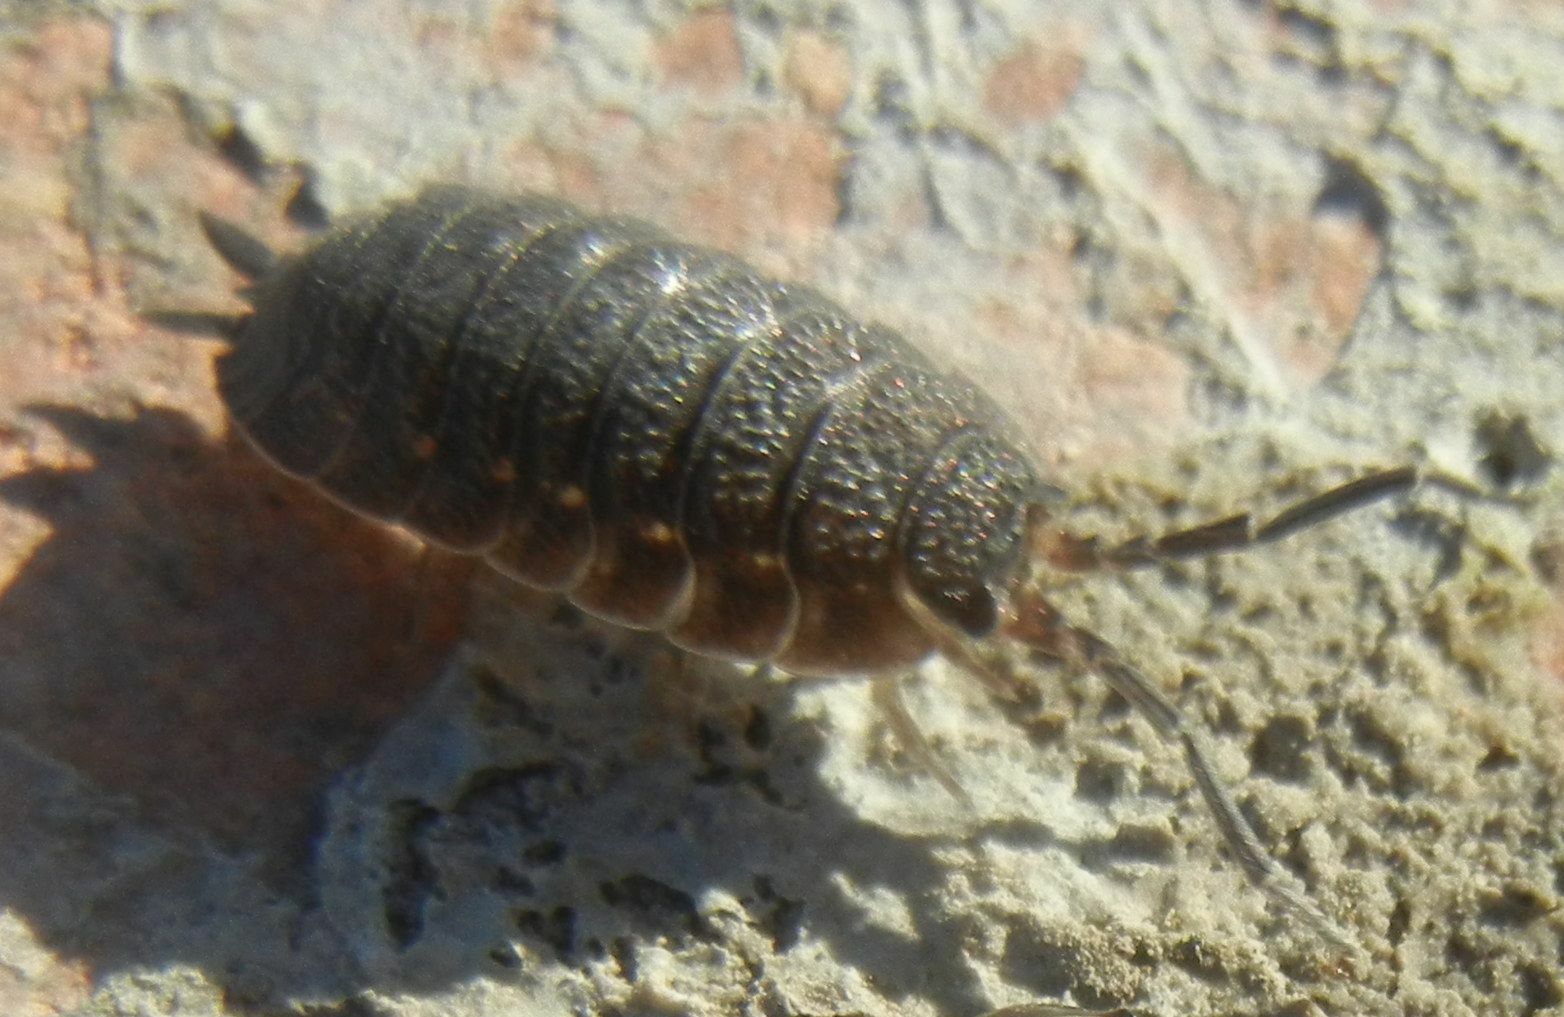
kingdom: Animalia
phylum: Arthropoda
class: Malacostraca
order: Isopoda
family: Porcellionidae
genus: Porcellio
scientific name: Porcellio scaber
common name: Common rough woodlouse
